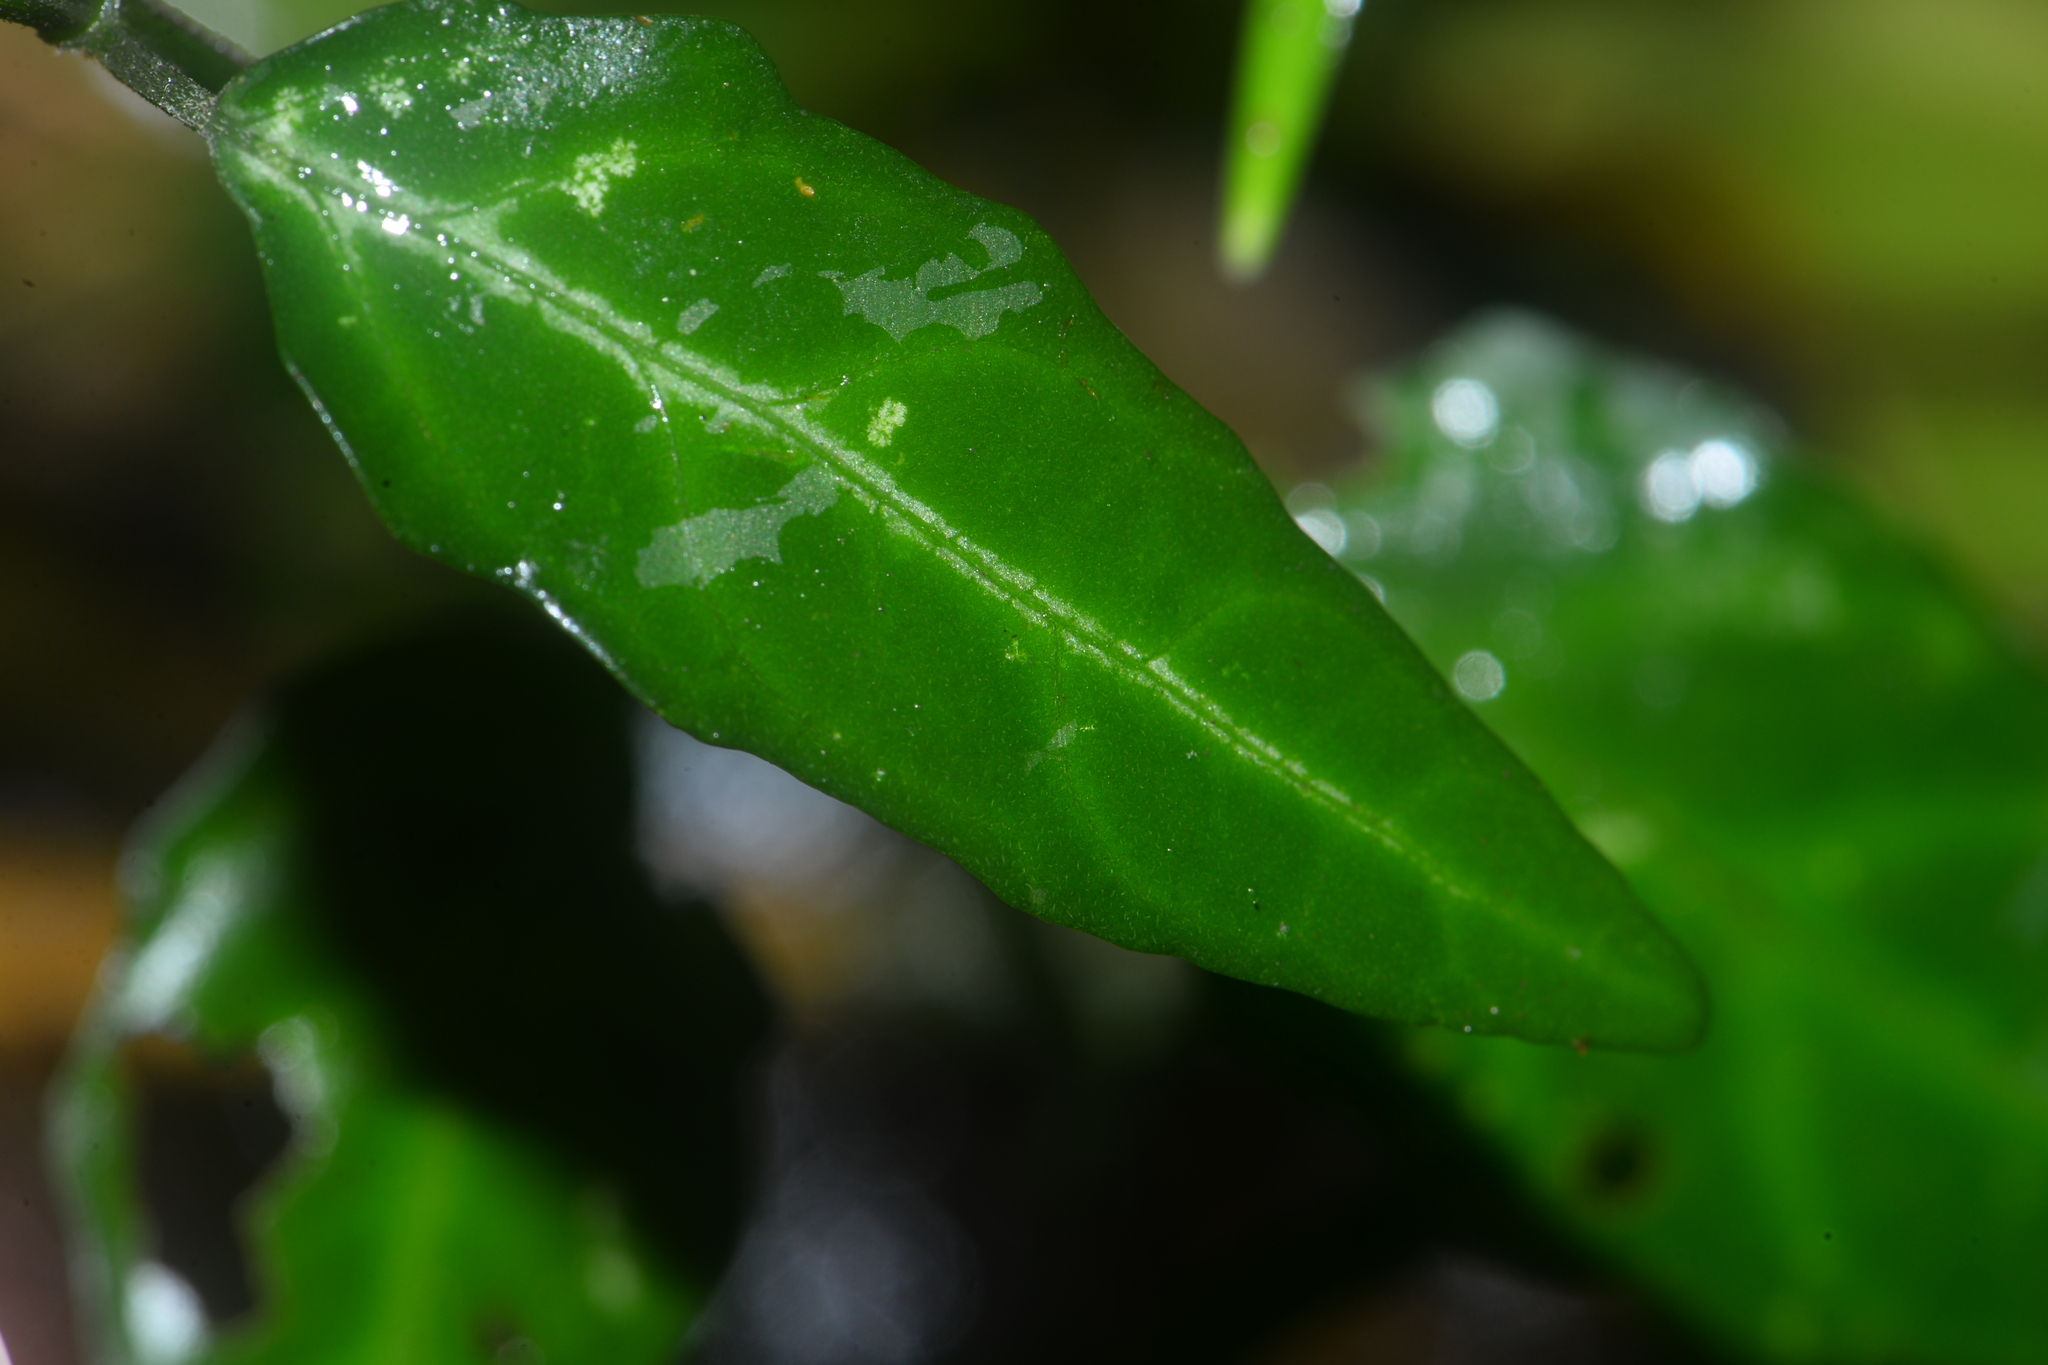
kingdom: Plantae
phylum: Tracheophyta
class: Magnoliopsida
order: Lamiales
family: Acanthaceae
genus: Kudoacanthus
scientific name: Kudoacanthus albonervosus
